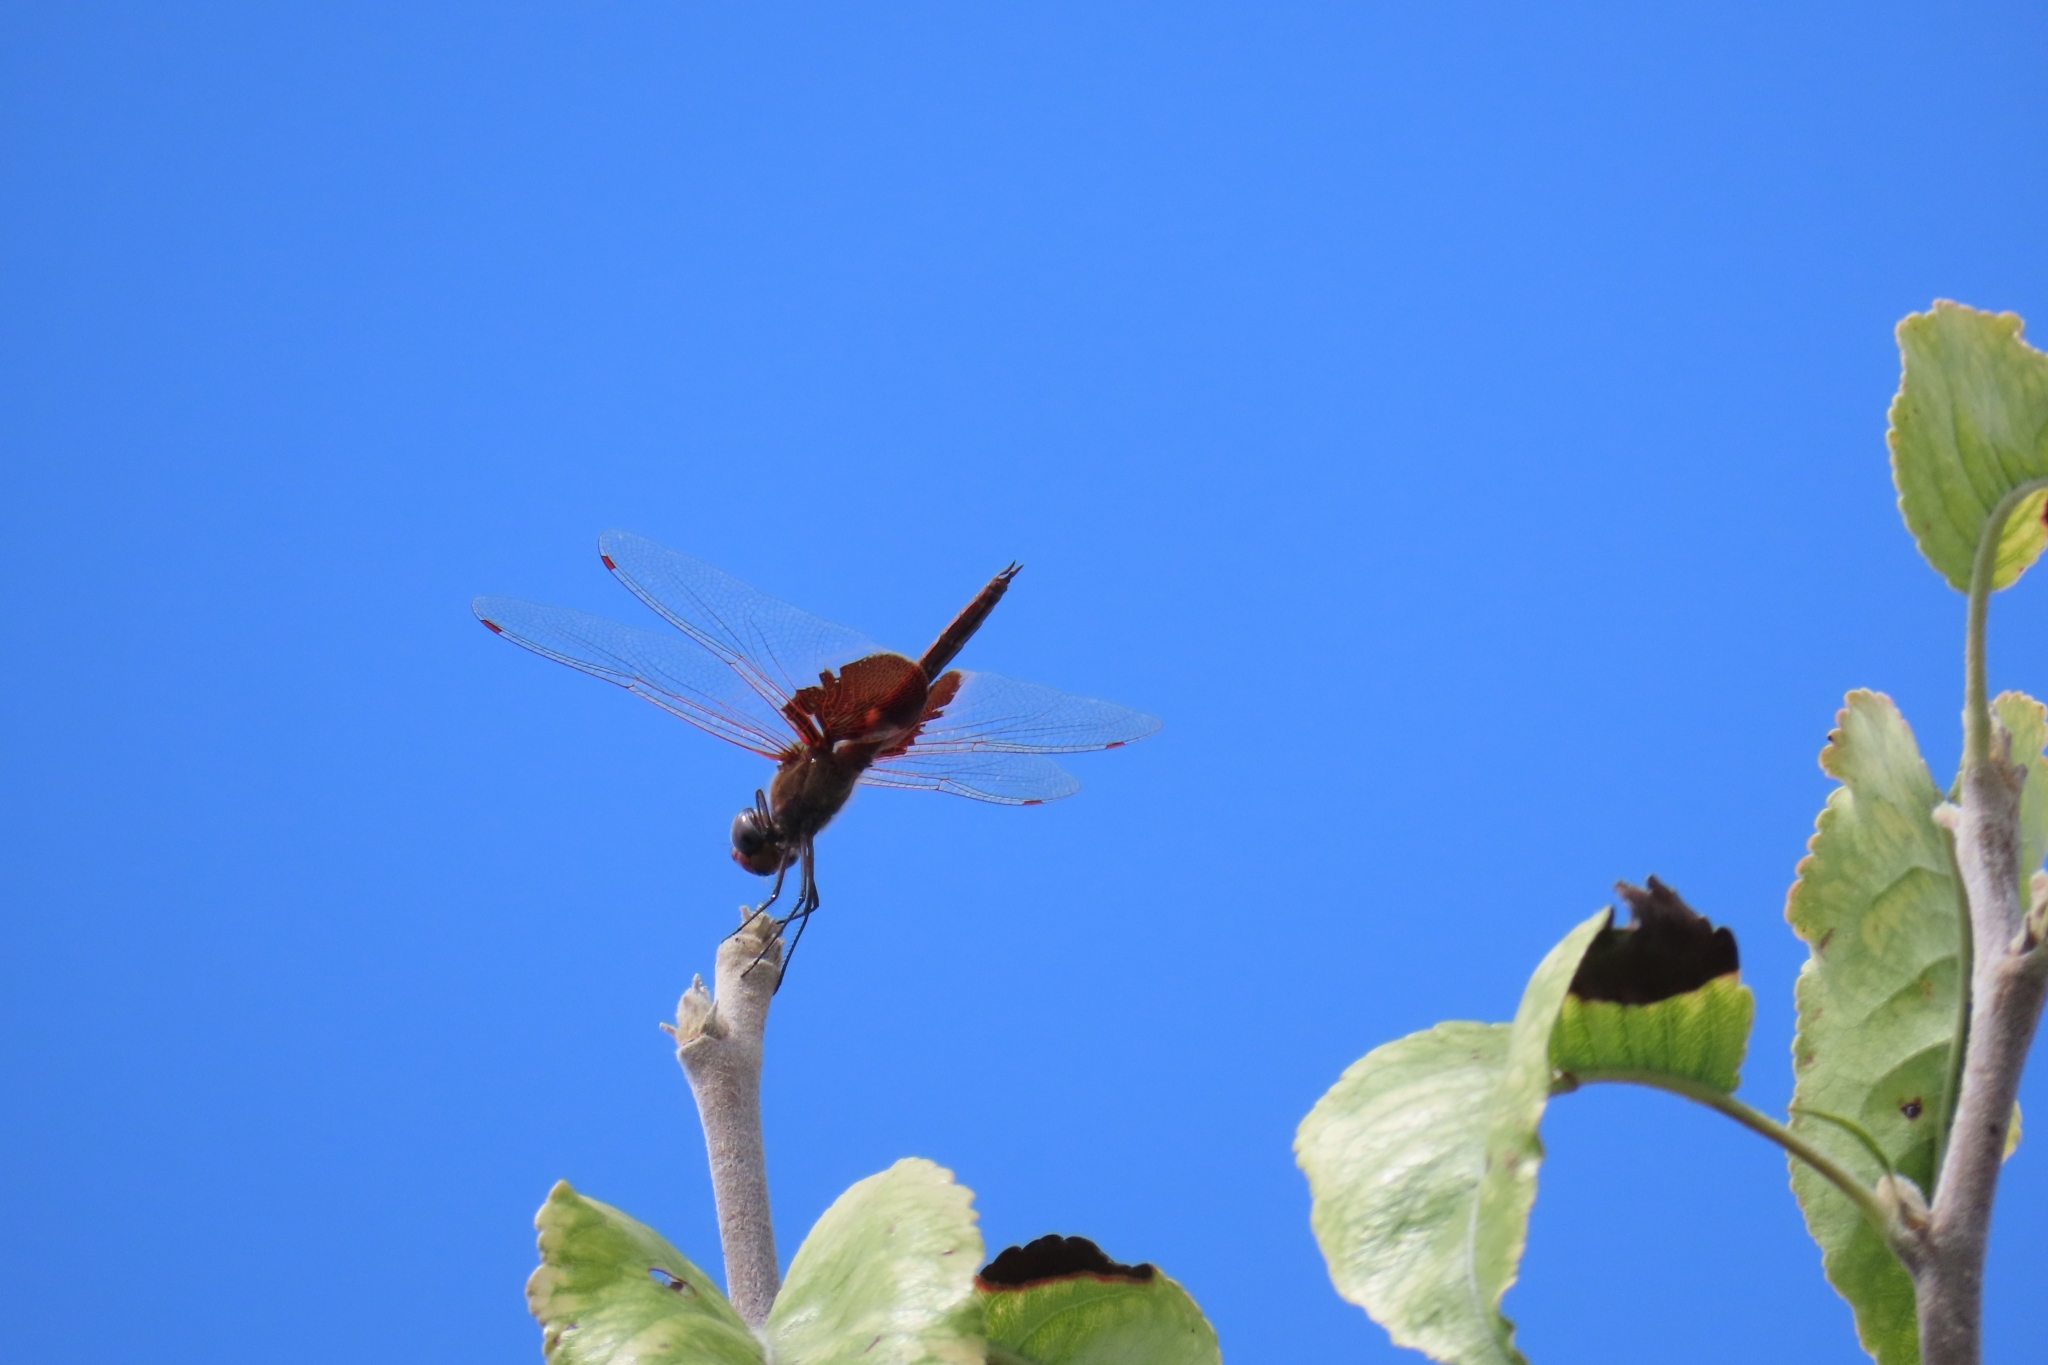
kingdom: Animalia
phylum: Arthropoda
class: Insecta
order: Odonata
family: Libellulidae
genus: Tramea
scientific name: Tramea onusta
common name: Red saddlebags
